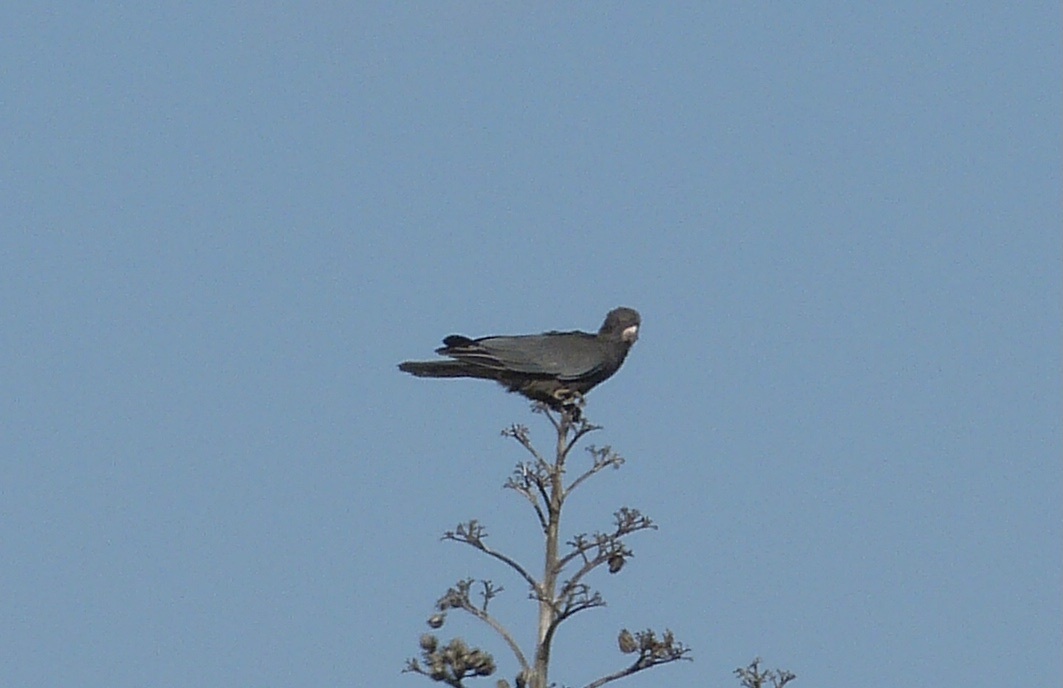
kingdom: Animalia
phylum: Chordata
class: Aves
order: Psittaciformes
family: Psittacidae
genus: Coracopsis
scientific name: Coracopsis vasa
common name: Greater vasa parrot
